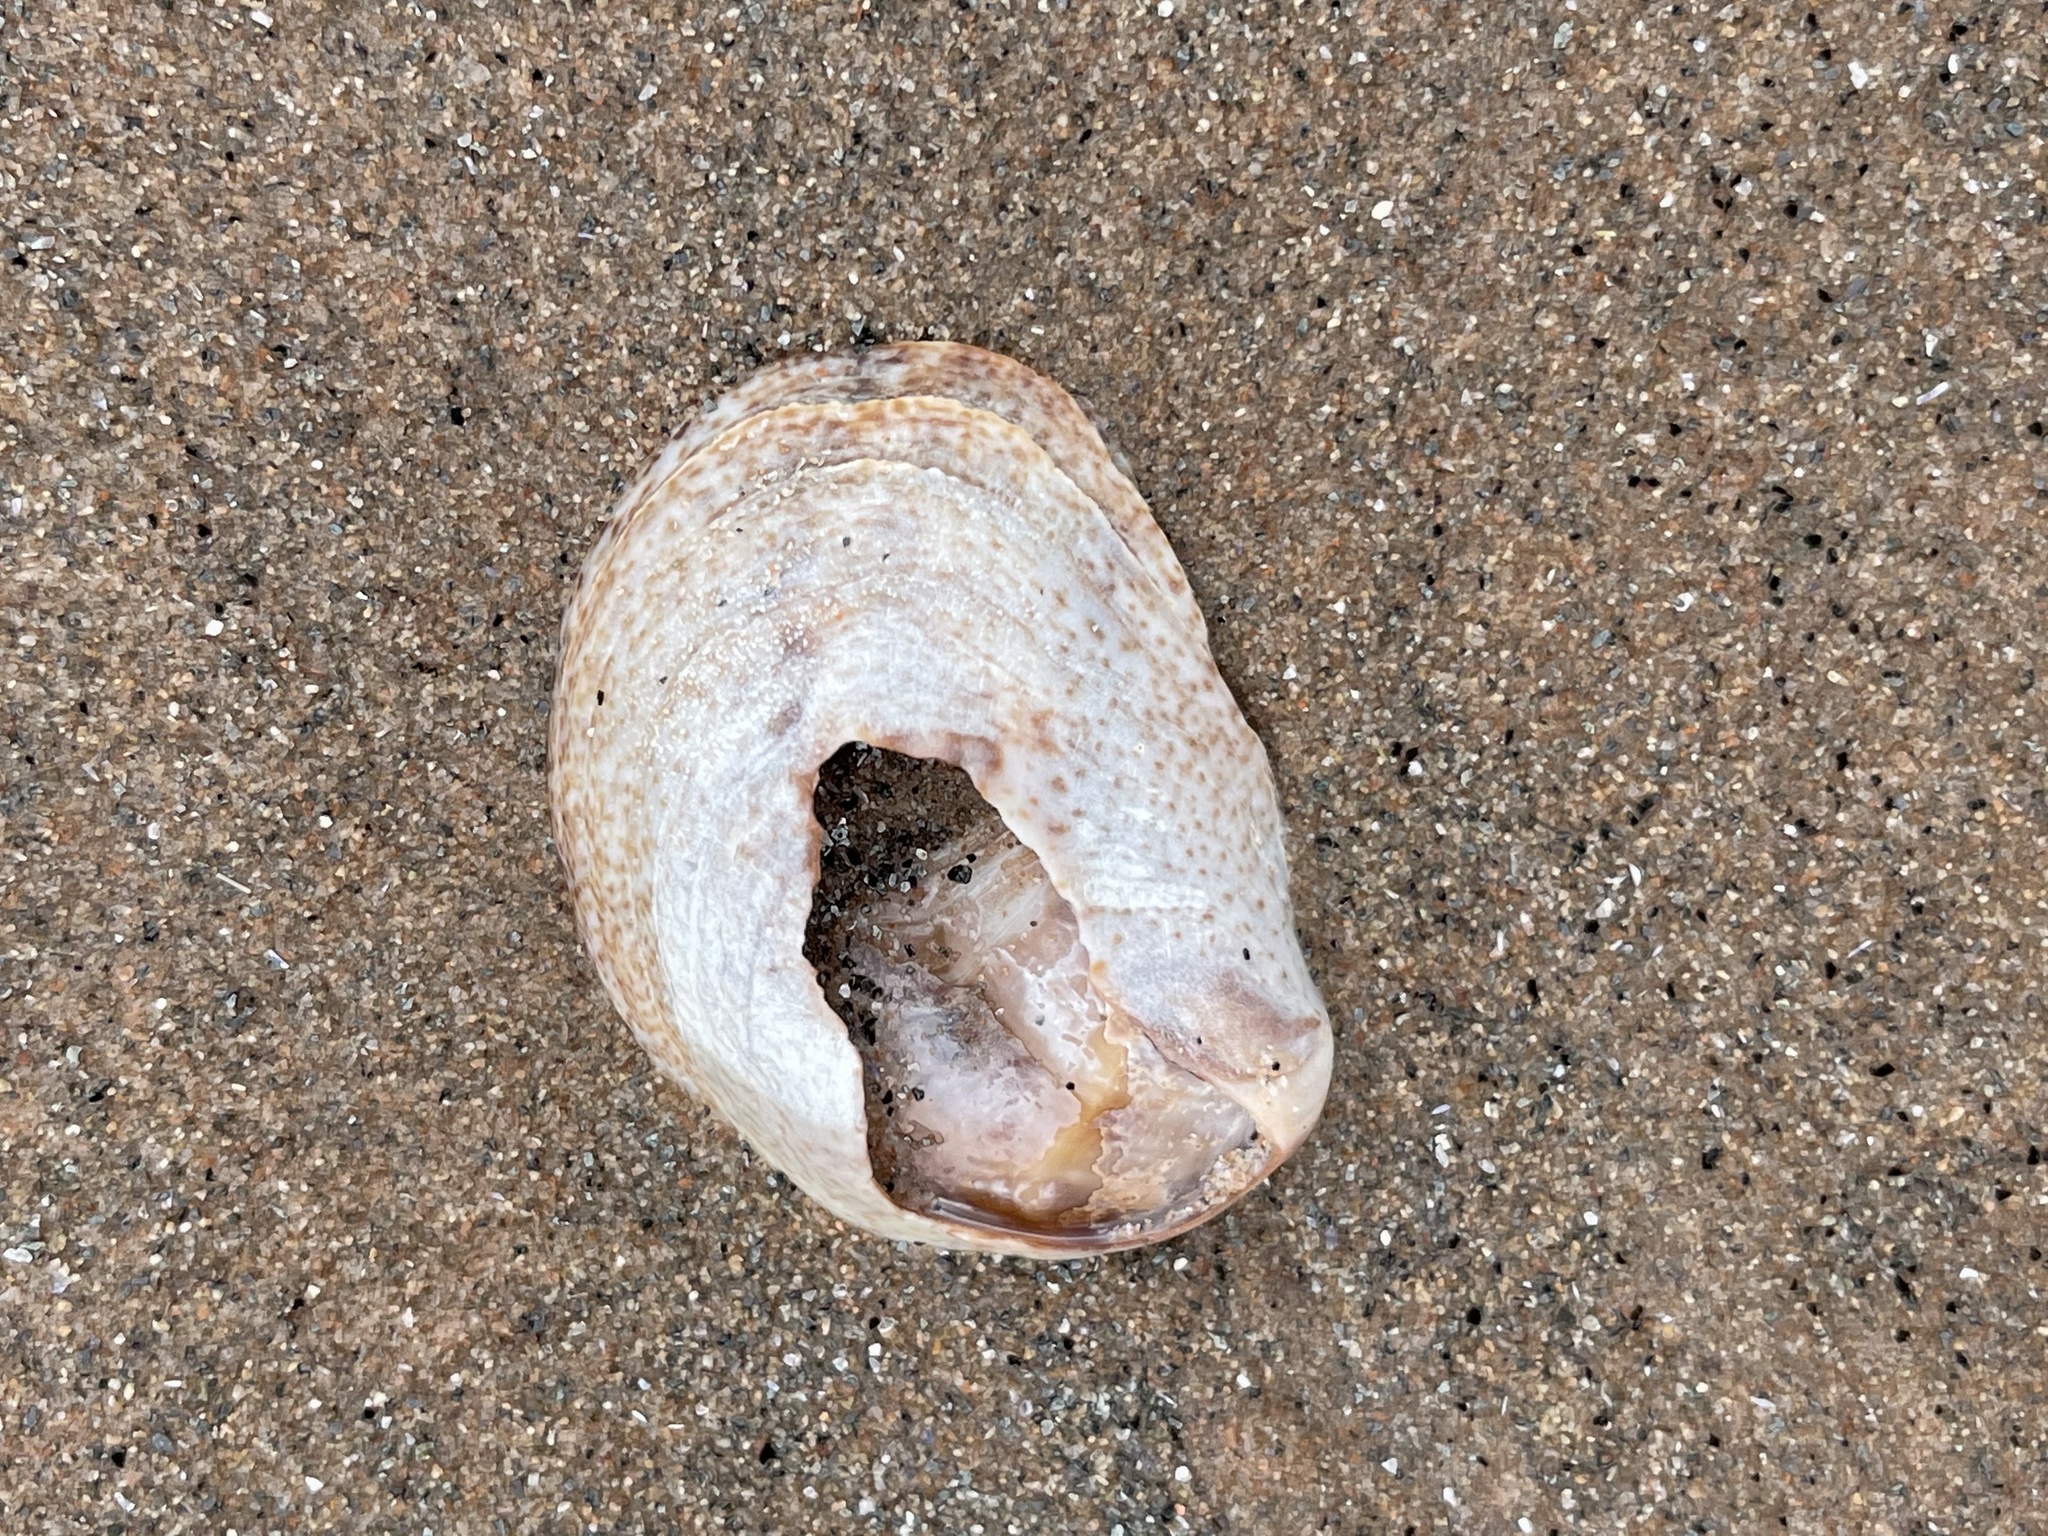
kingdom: Animalia
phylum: Mollusca
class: Gastropoda
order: Littorinimorpha
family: Calyptraeidae
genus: Crepidula
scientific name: Crepidula fornicata
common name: Slipper limpet
